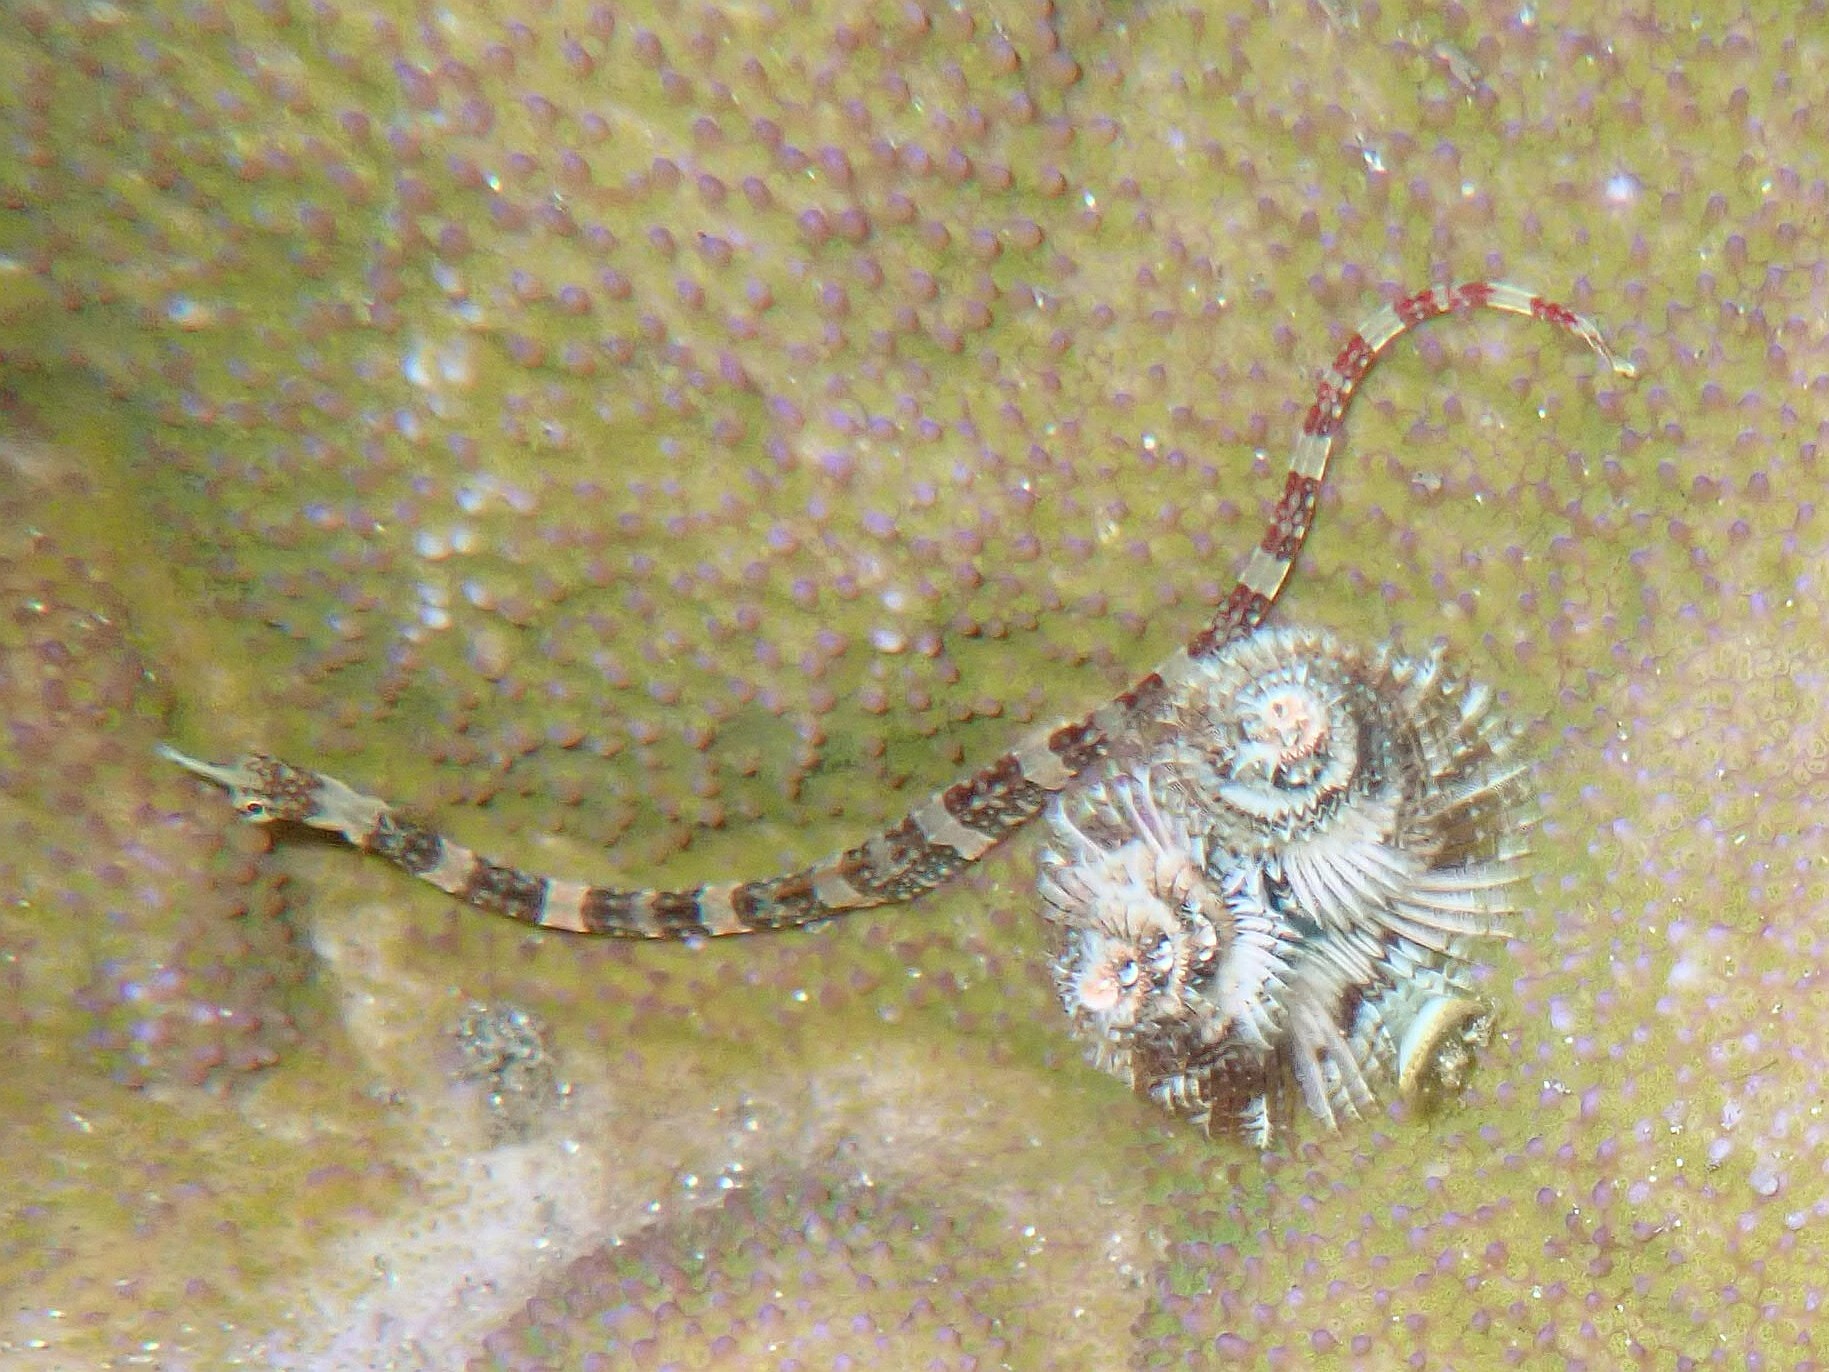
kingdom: Animalia
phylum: Chordata
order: Syngnathiformes
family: Syngnathidae
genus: Corythoichthys
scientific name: Corythoichthys amplexus
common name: Brown-banded pipefish
